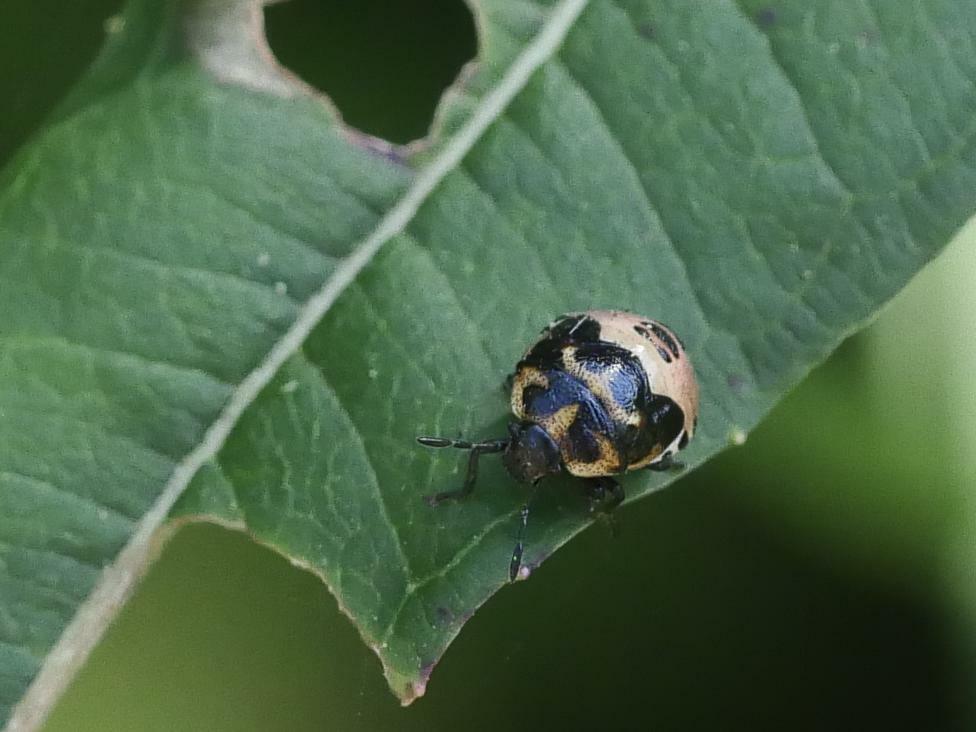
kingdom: Animalia
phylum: Arthropoda
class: Insecta
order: Hemiptera
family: Pentatomidae
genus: Cosmopepla
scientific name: Cosmopepla lintneriana
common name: Twice-stabbed stink bug
